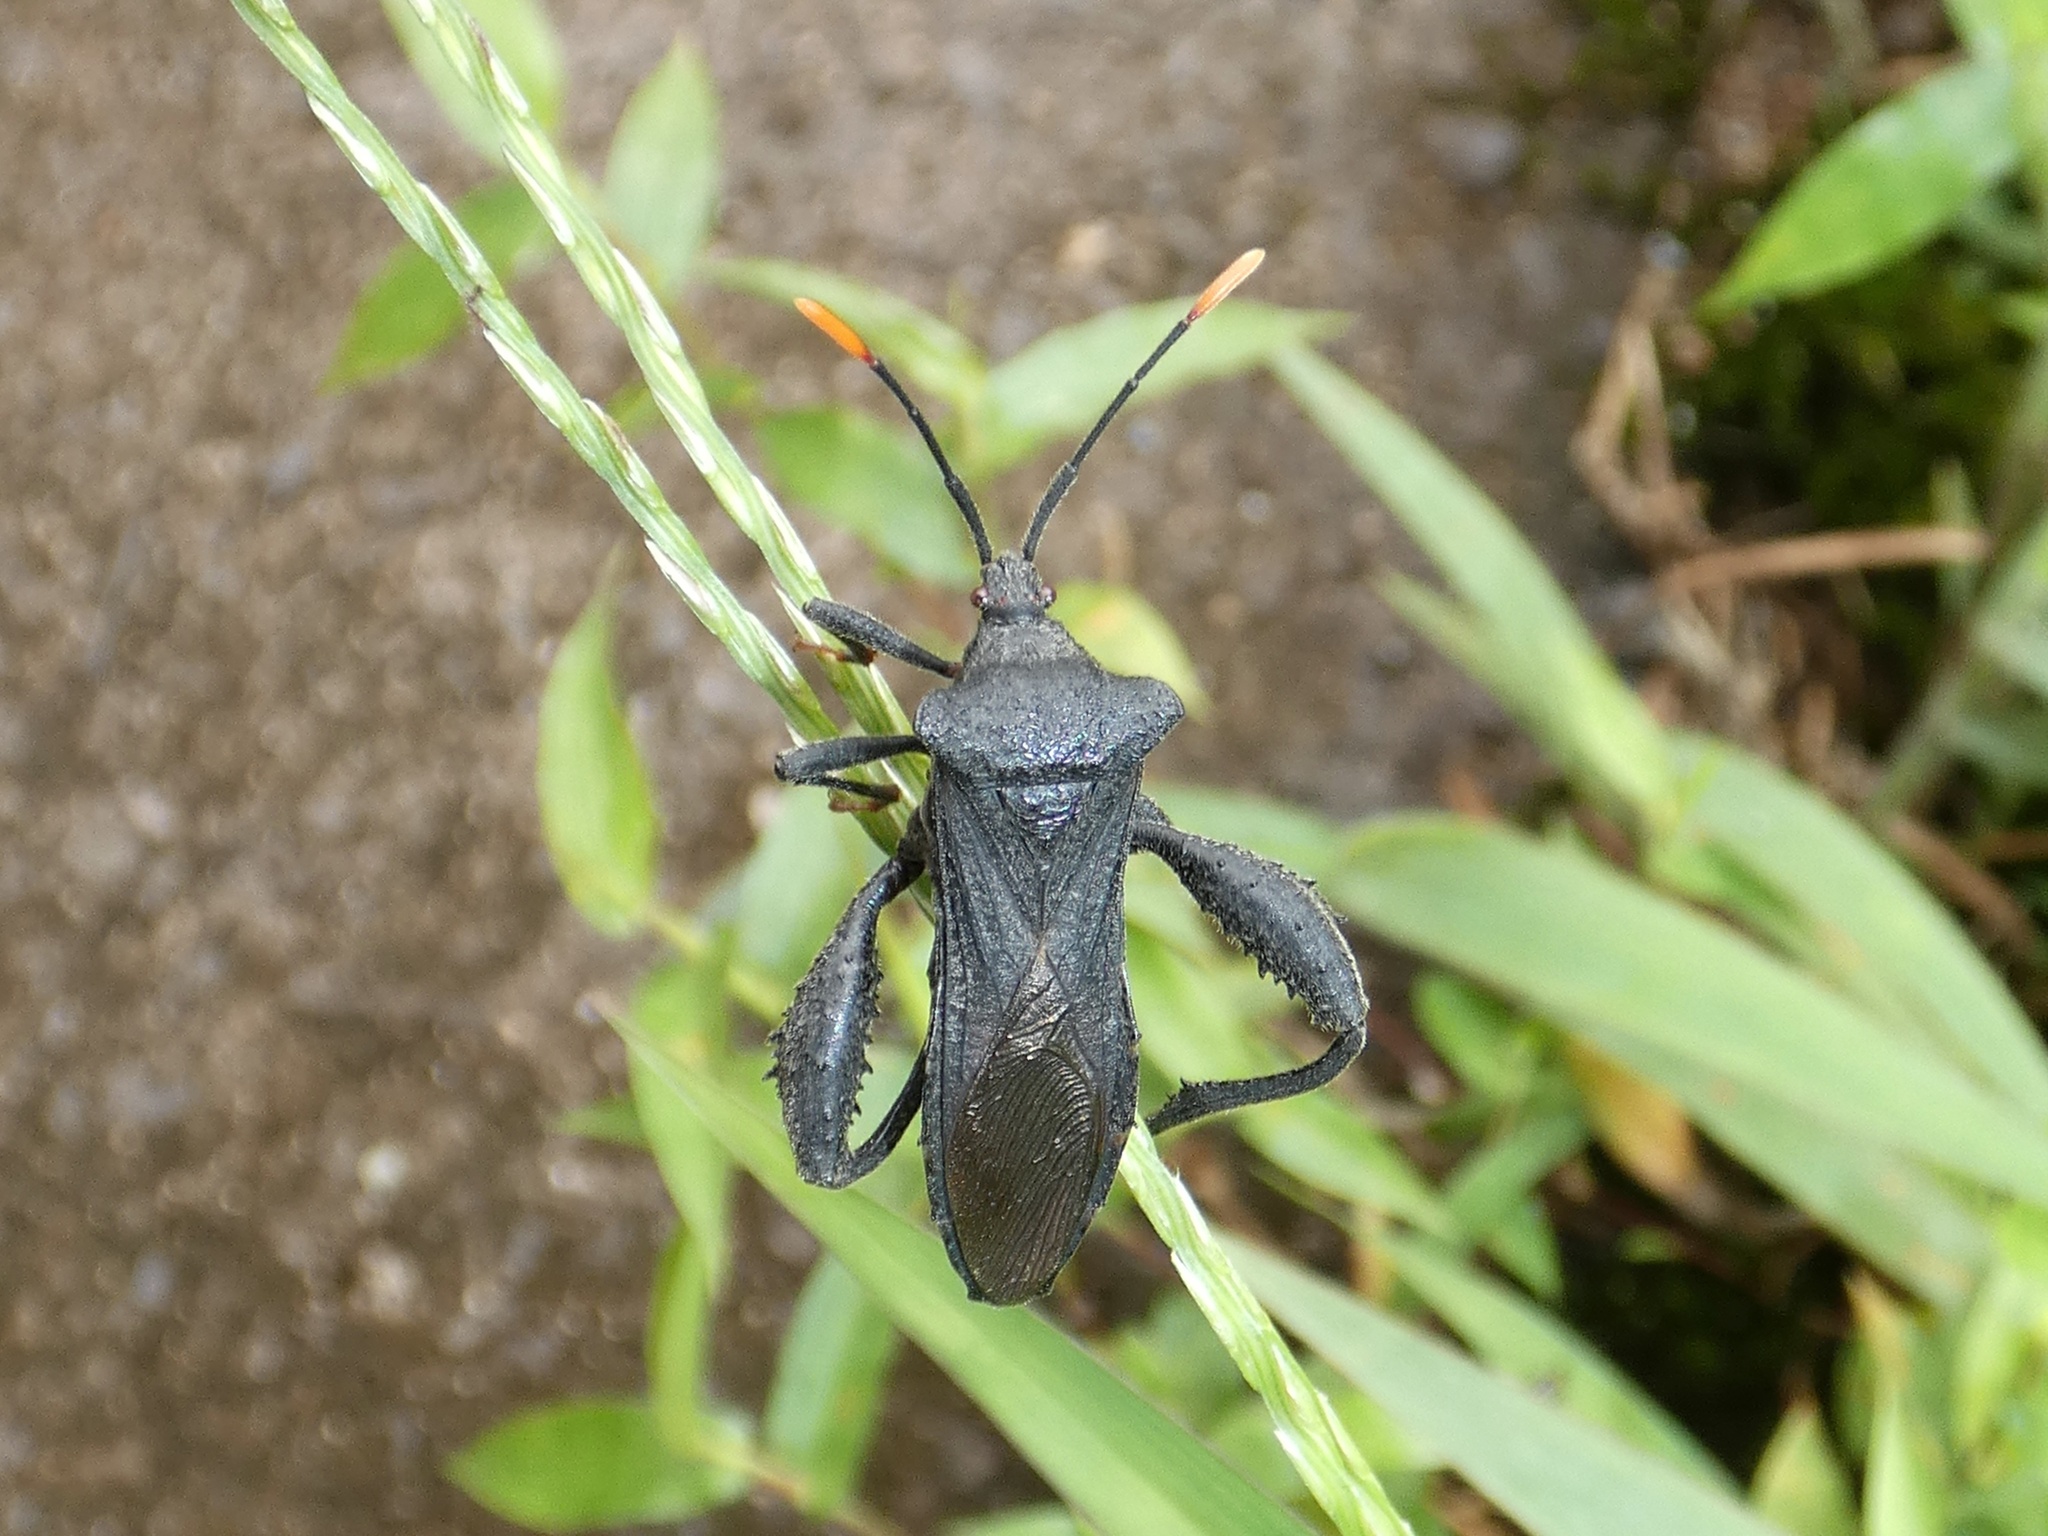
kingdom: Animalia
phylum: Arthropoda
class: Insecta
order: Hemiptera
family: Coreidae
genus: Piezogaster
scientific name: Piezogaster chiriquinus
